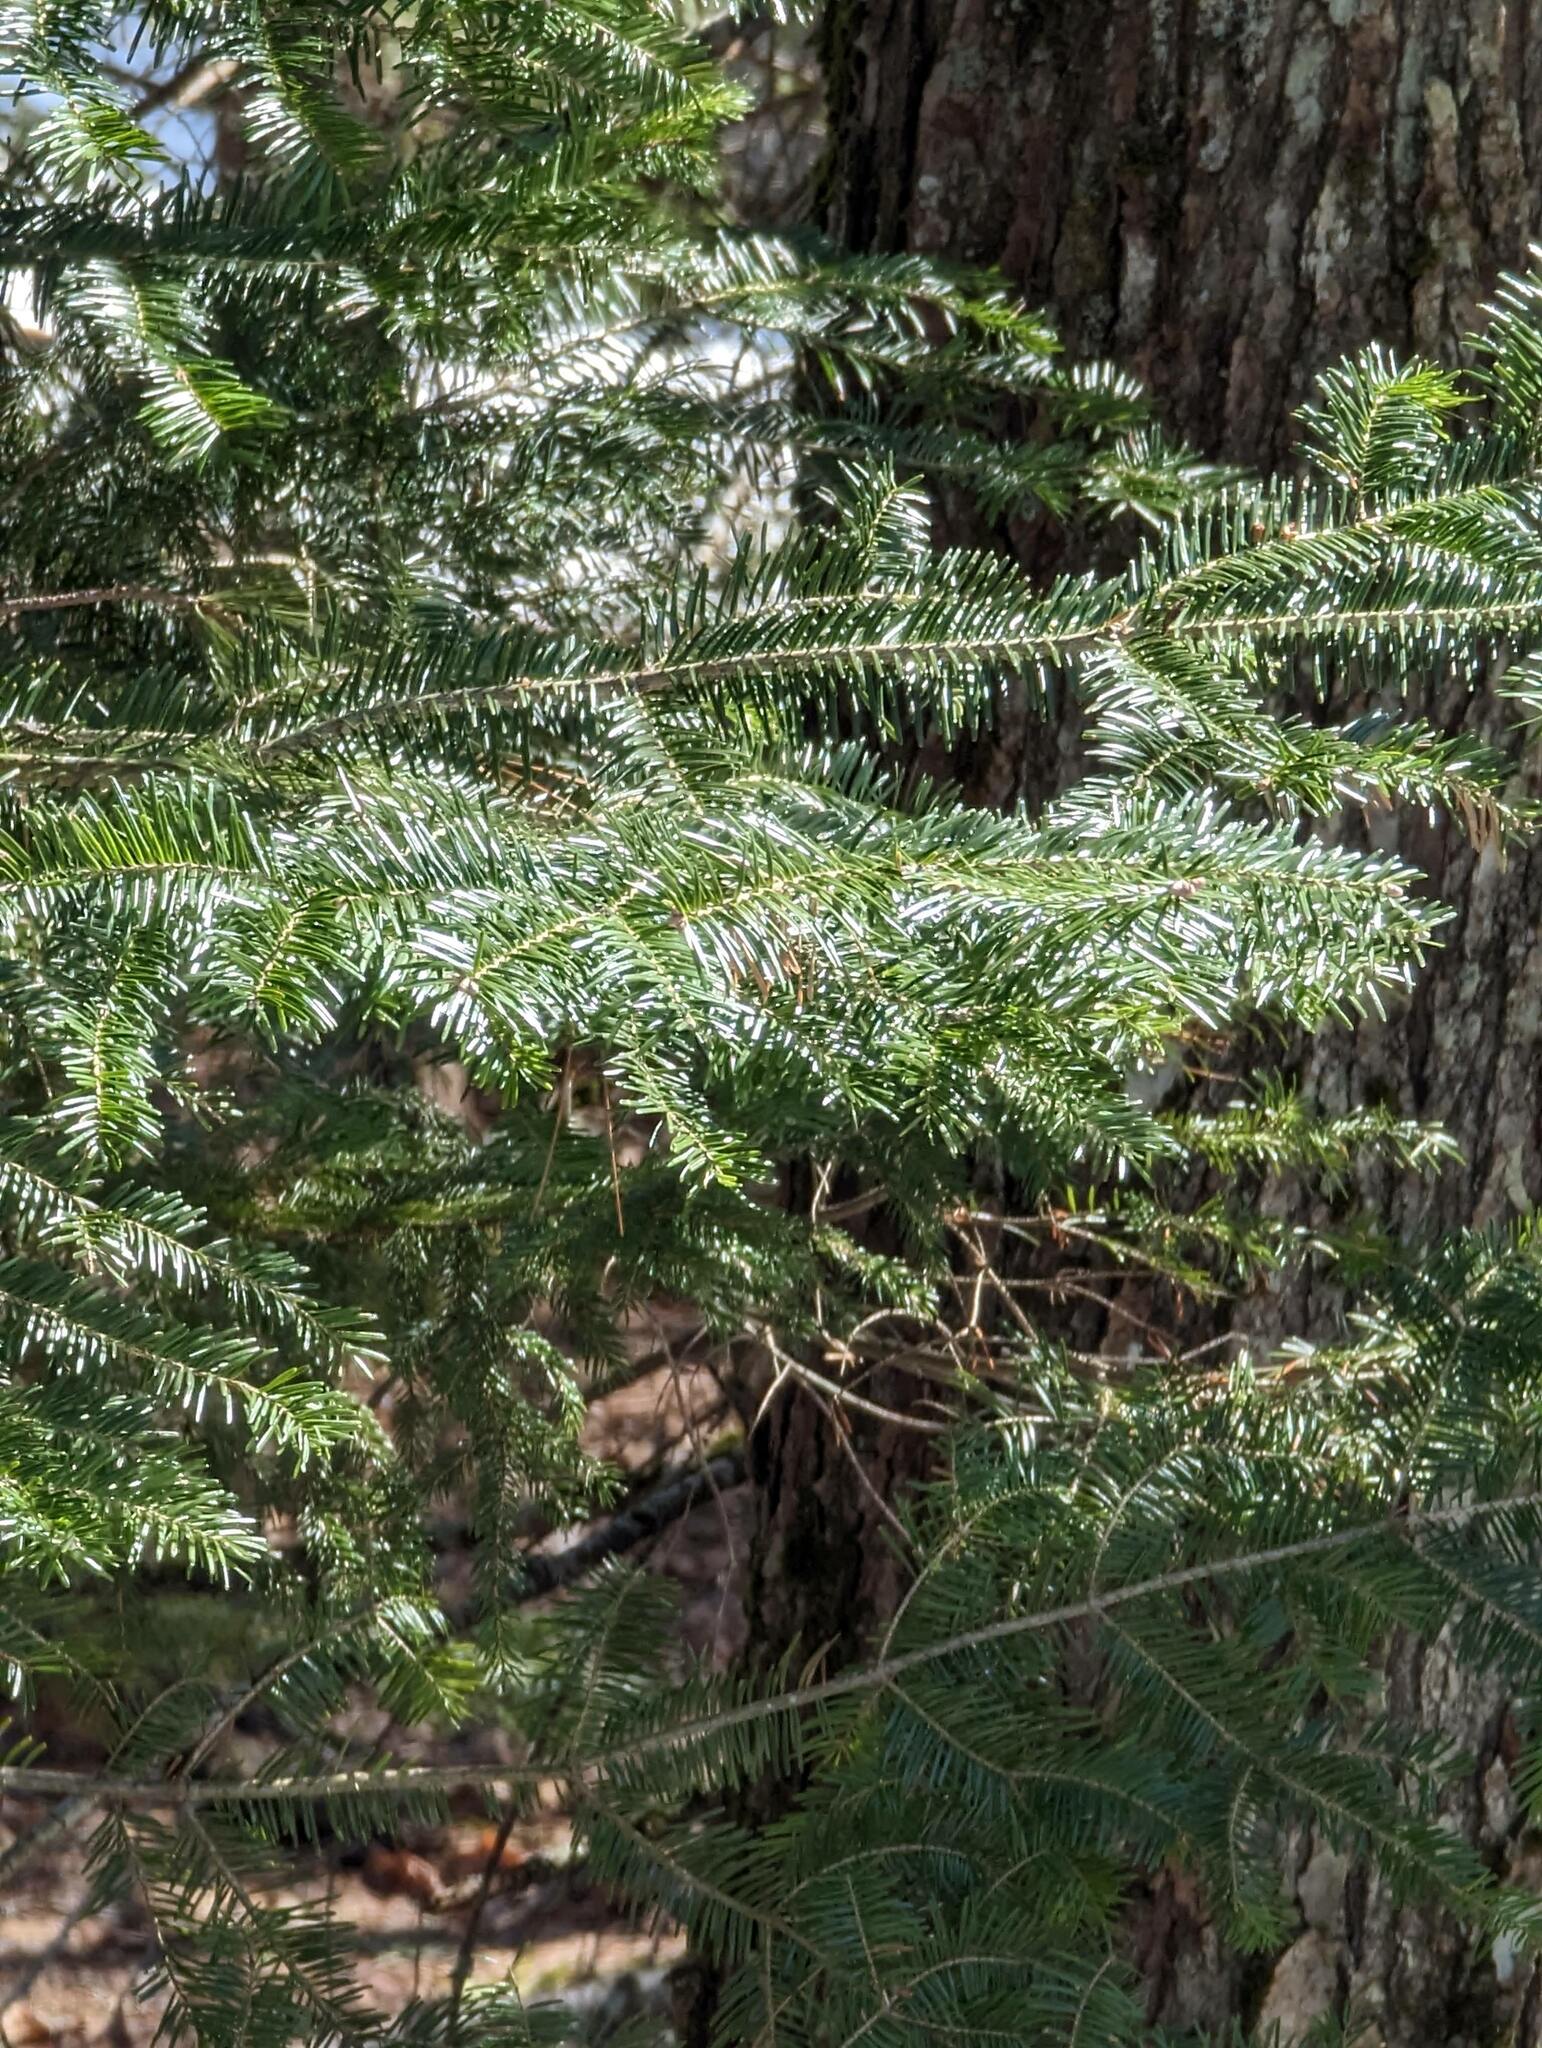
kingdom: Plantae
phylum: Tracheophyta
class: Pinopsida
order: Pinales
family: Pinaceae
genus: Abies
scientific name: Abies balsamea
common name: Balsam fir
